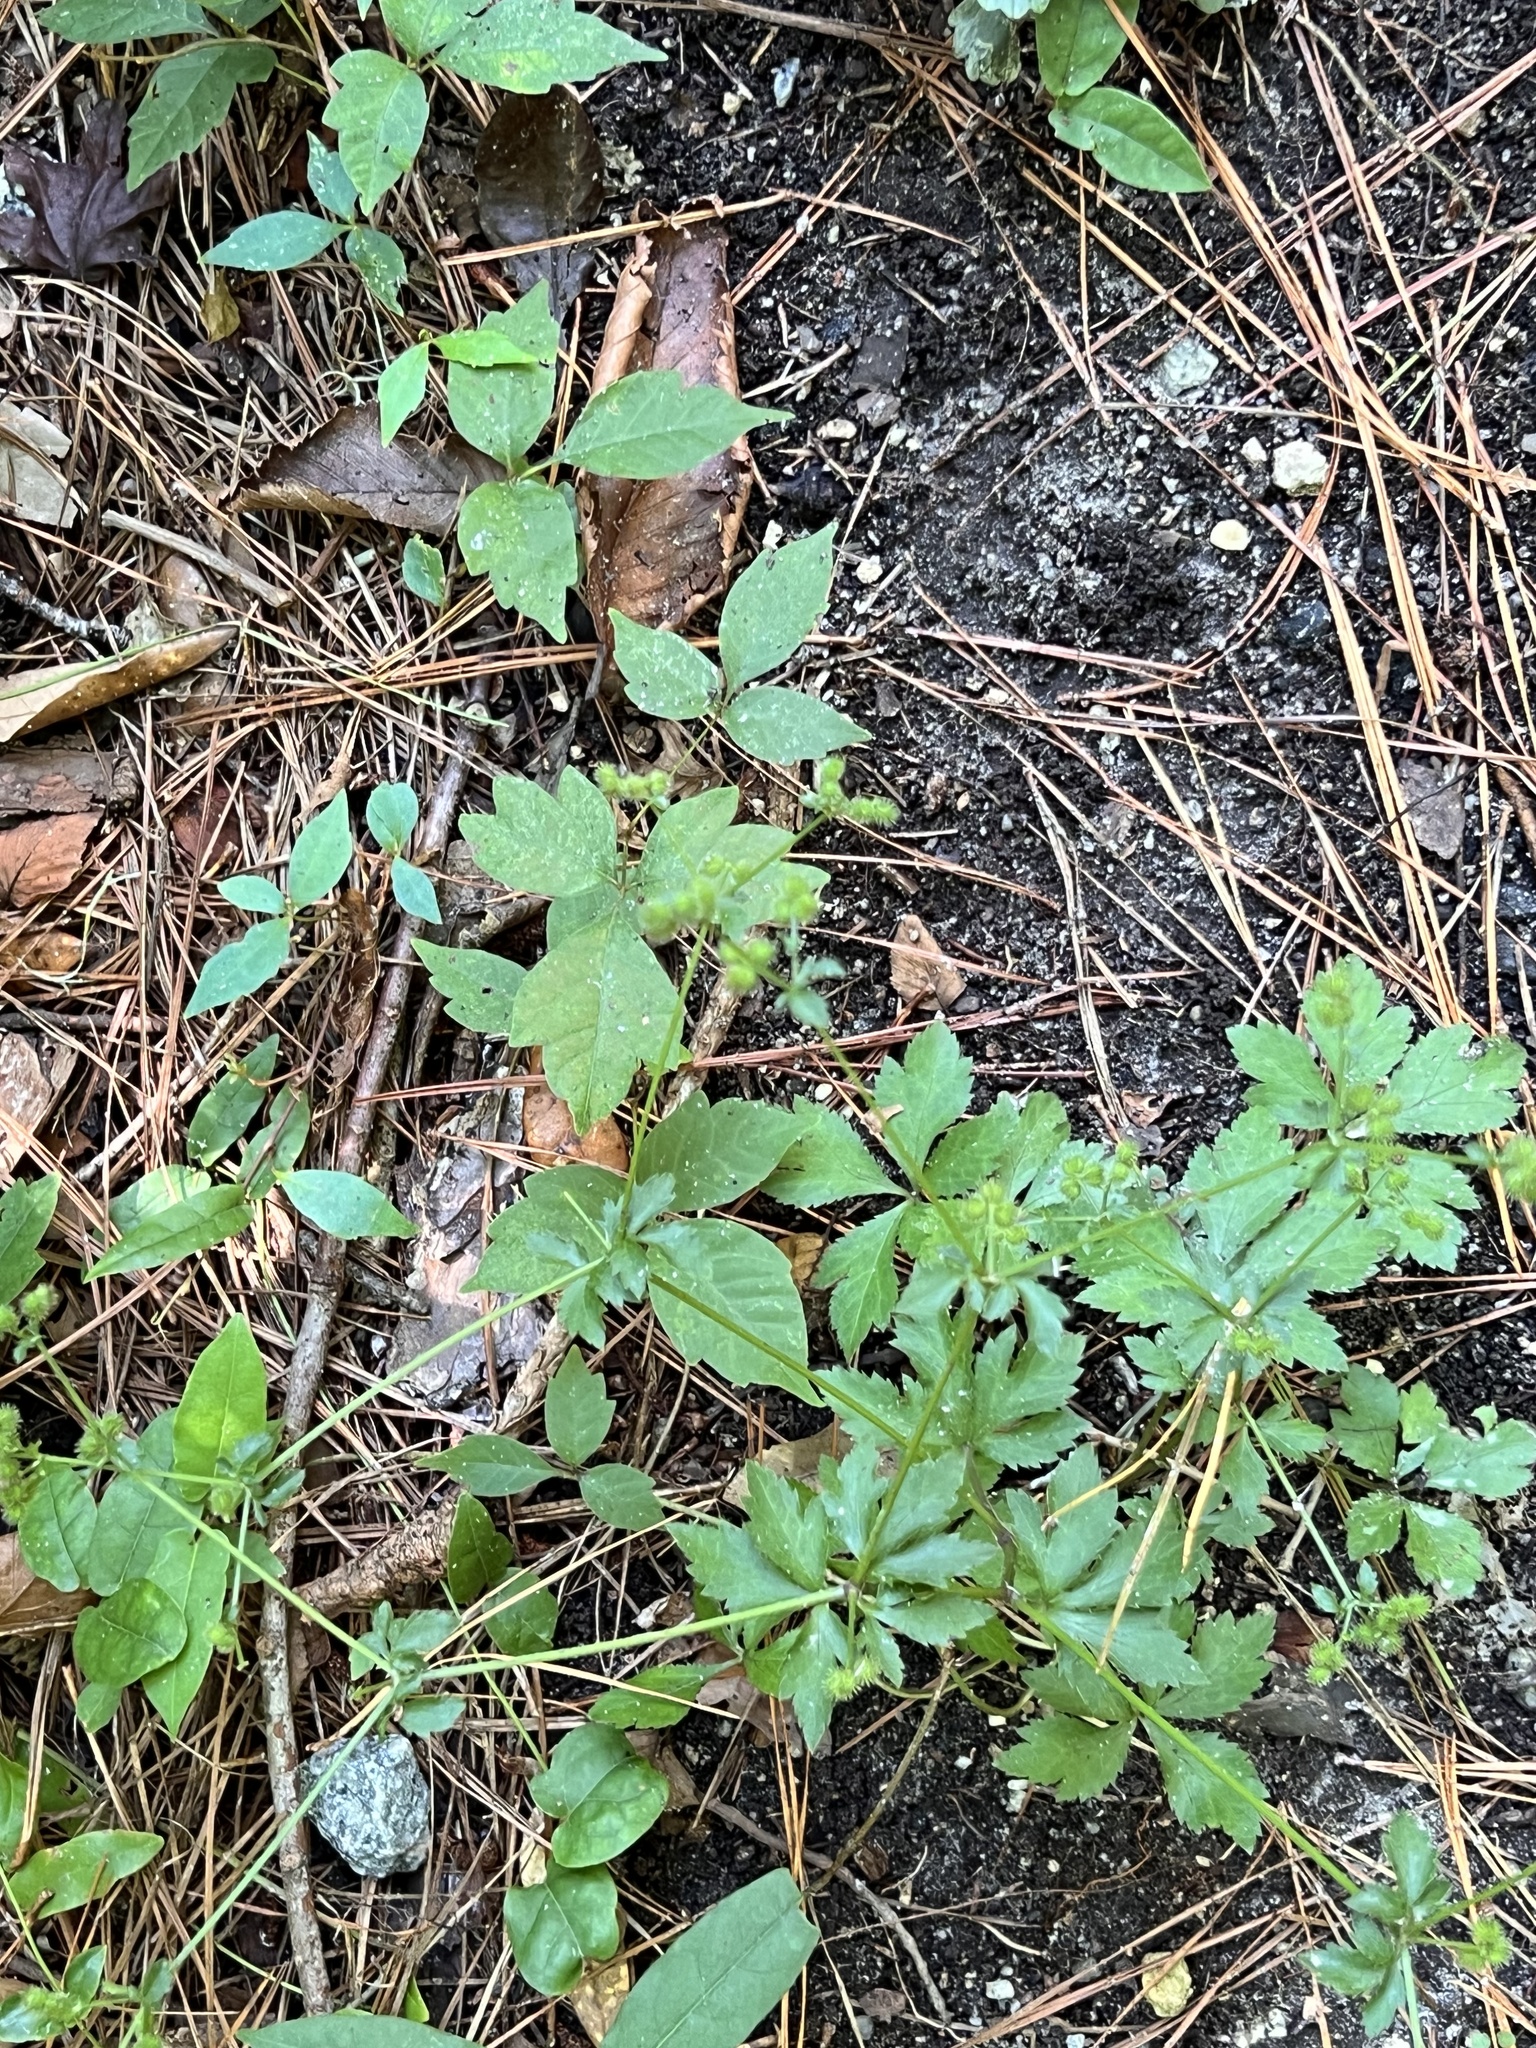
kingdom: Plantae
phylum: Tracheophyta
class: Magnoliopsida
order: Sapindales
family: Anacardiaceae
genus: Toxicodendron
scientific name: Toxicodendron radicans
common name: Poison ivy
